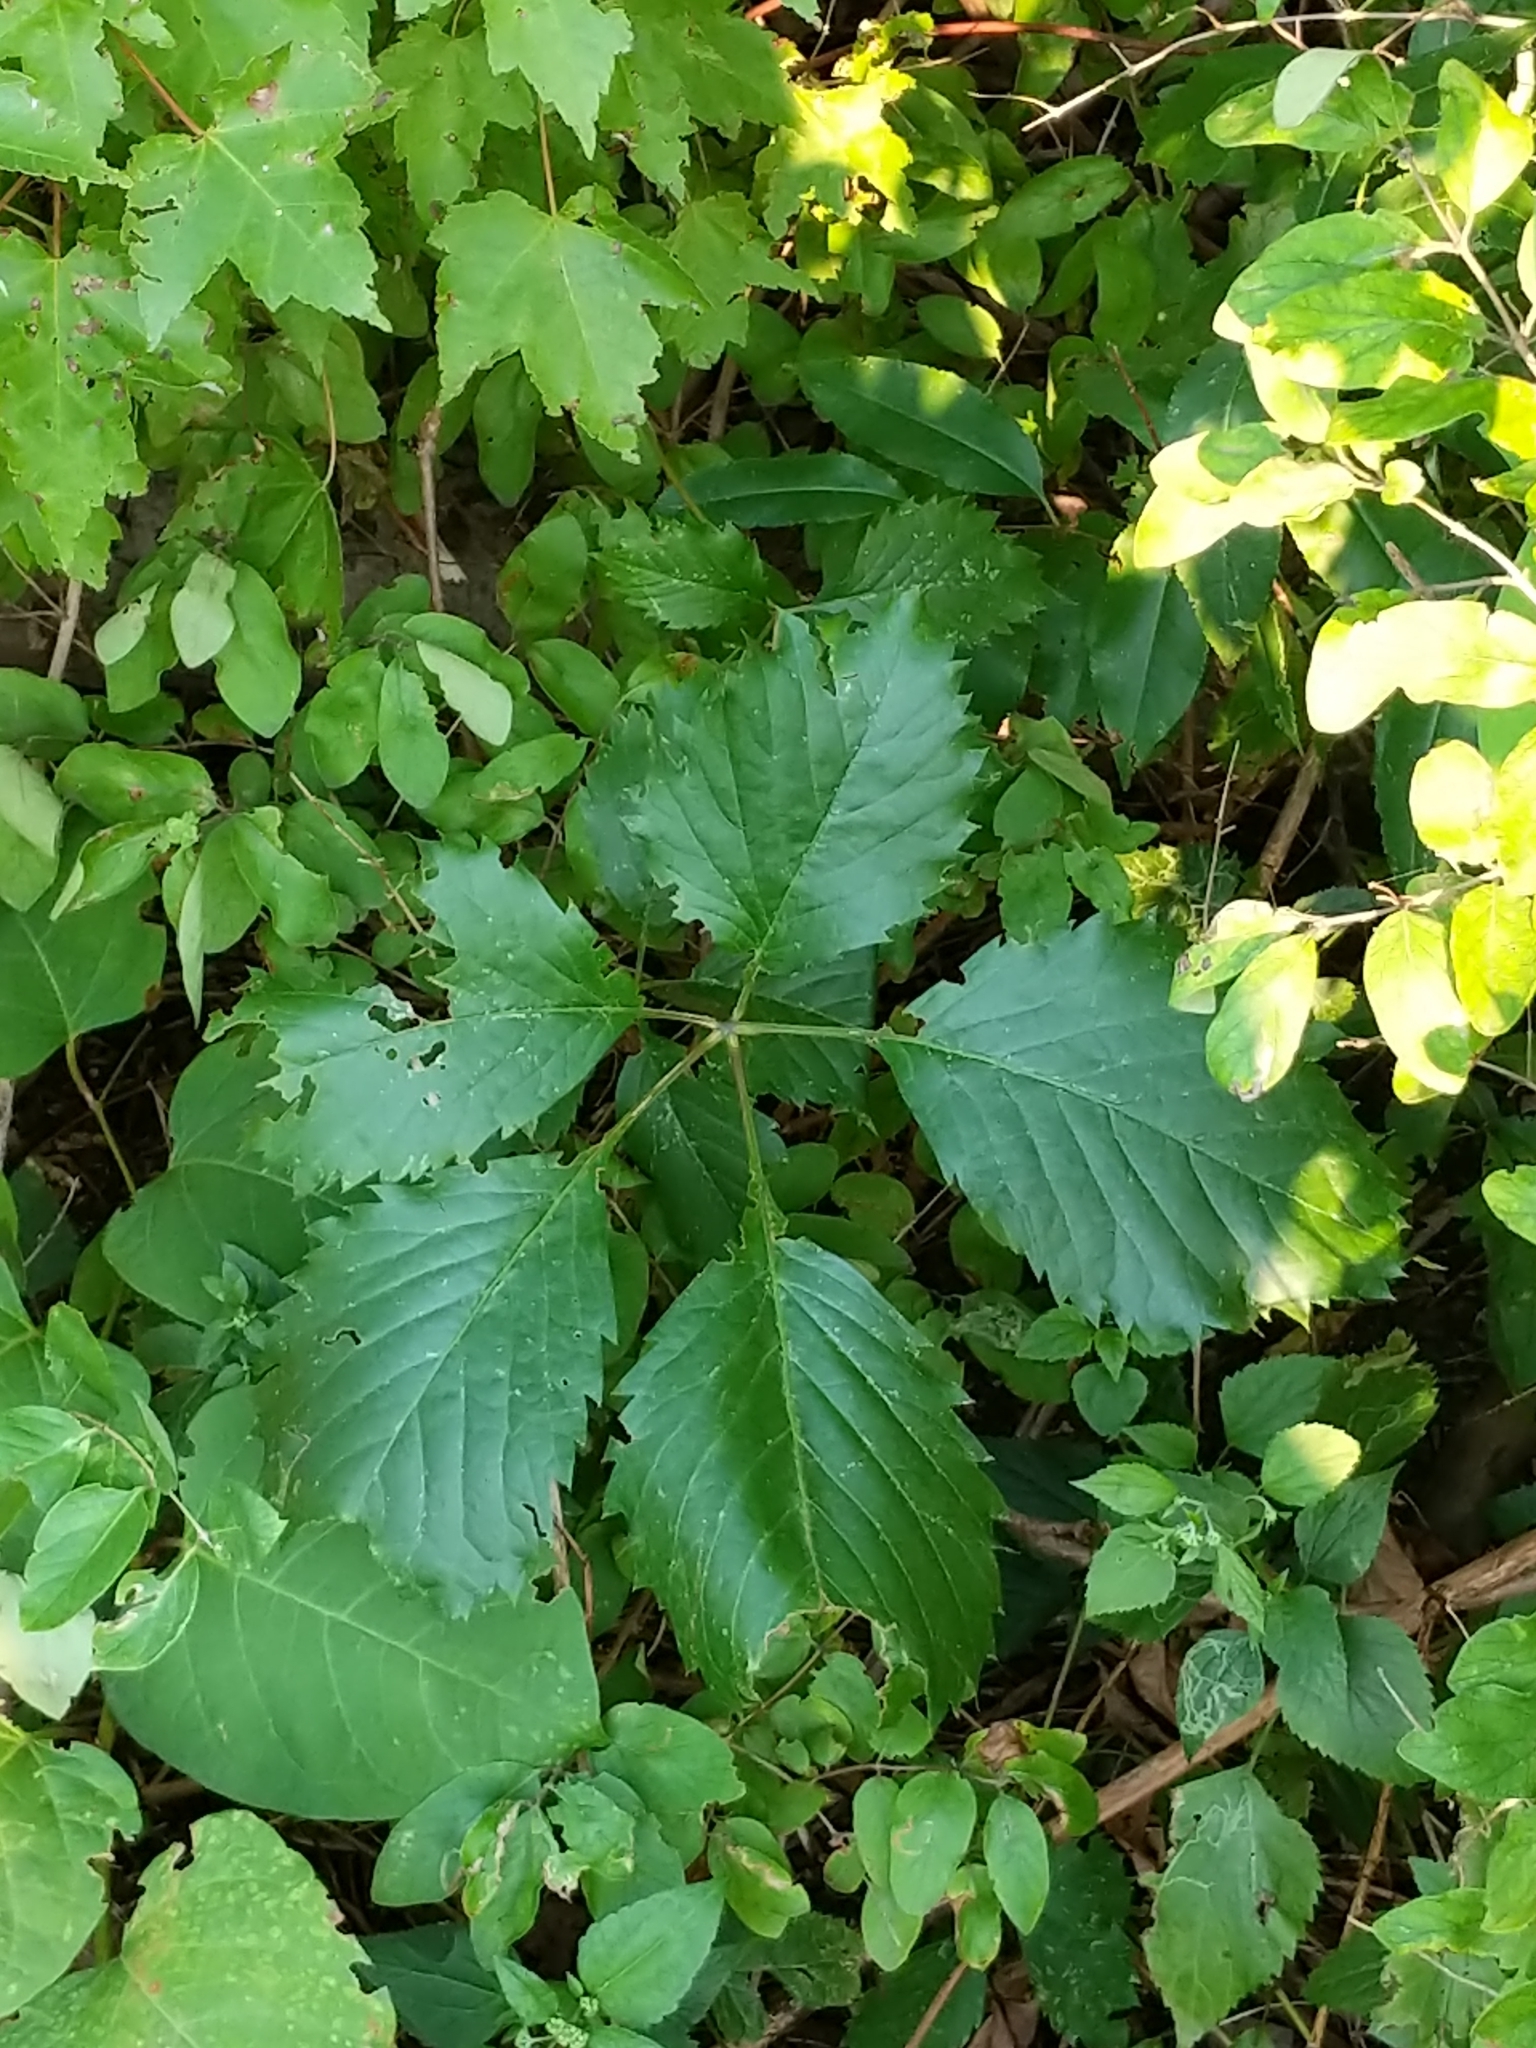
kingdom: Plantae
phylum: Tracheophyta
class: Magnoliopsida
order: Vitales
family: Vitaceae
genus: Parthenocissus
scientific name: Parthenocissus inserta
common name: False virginia-creeper
